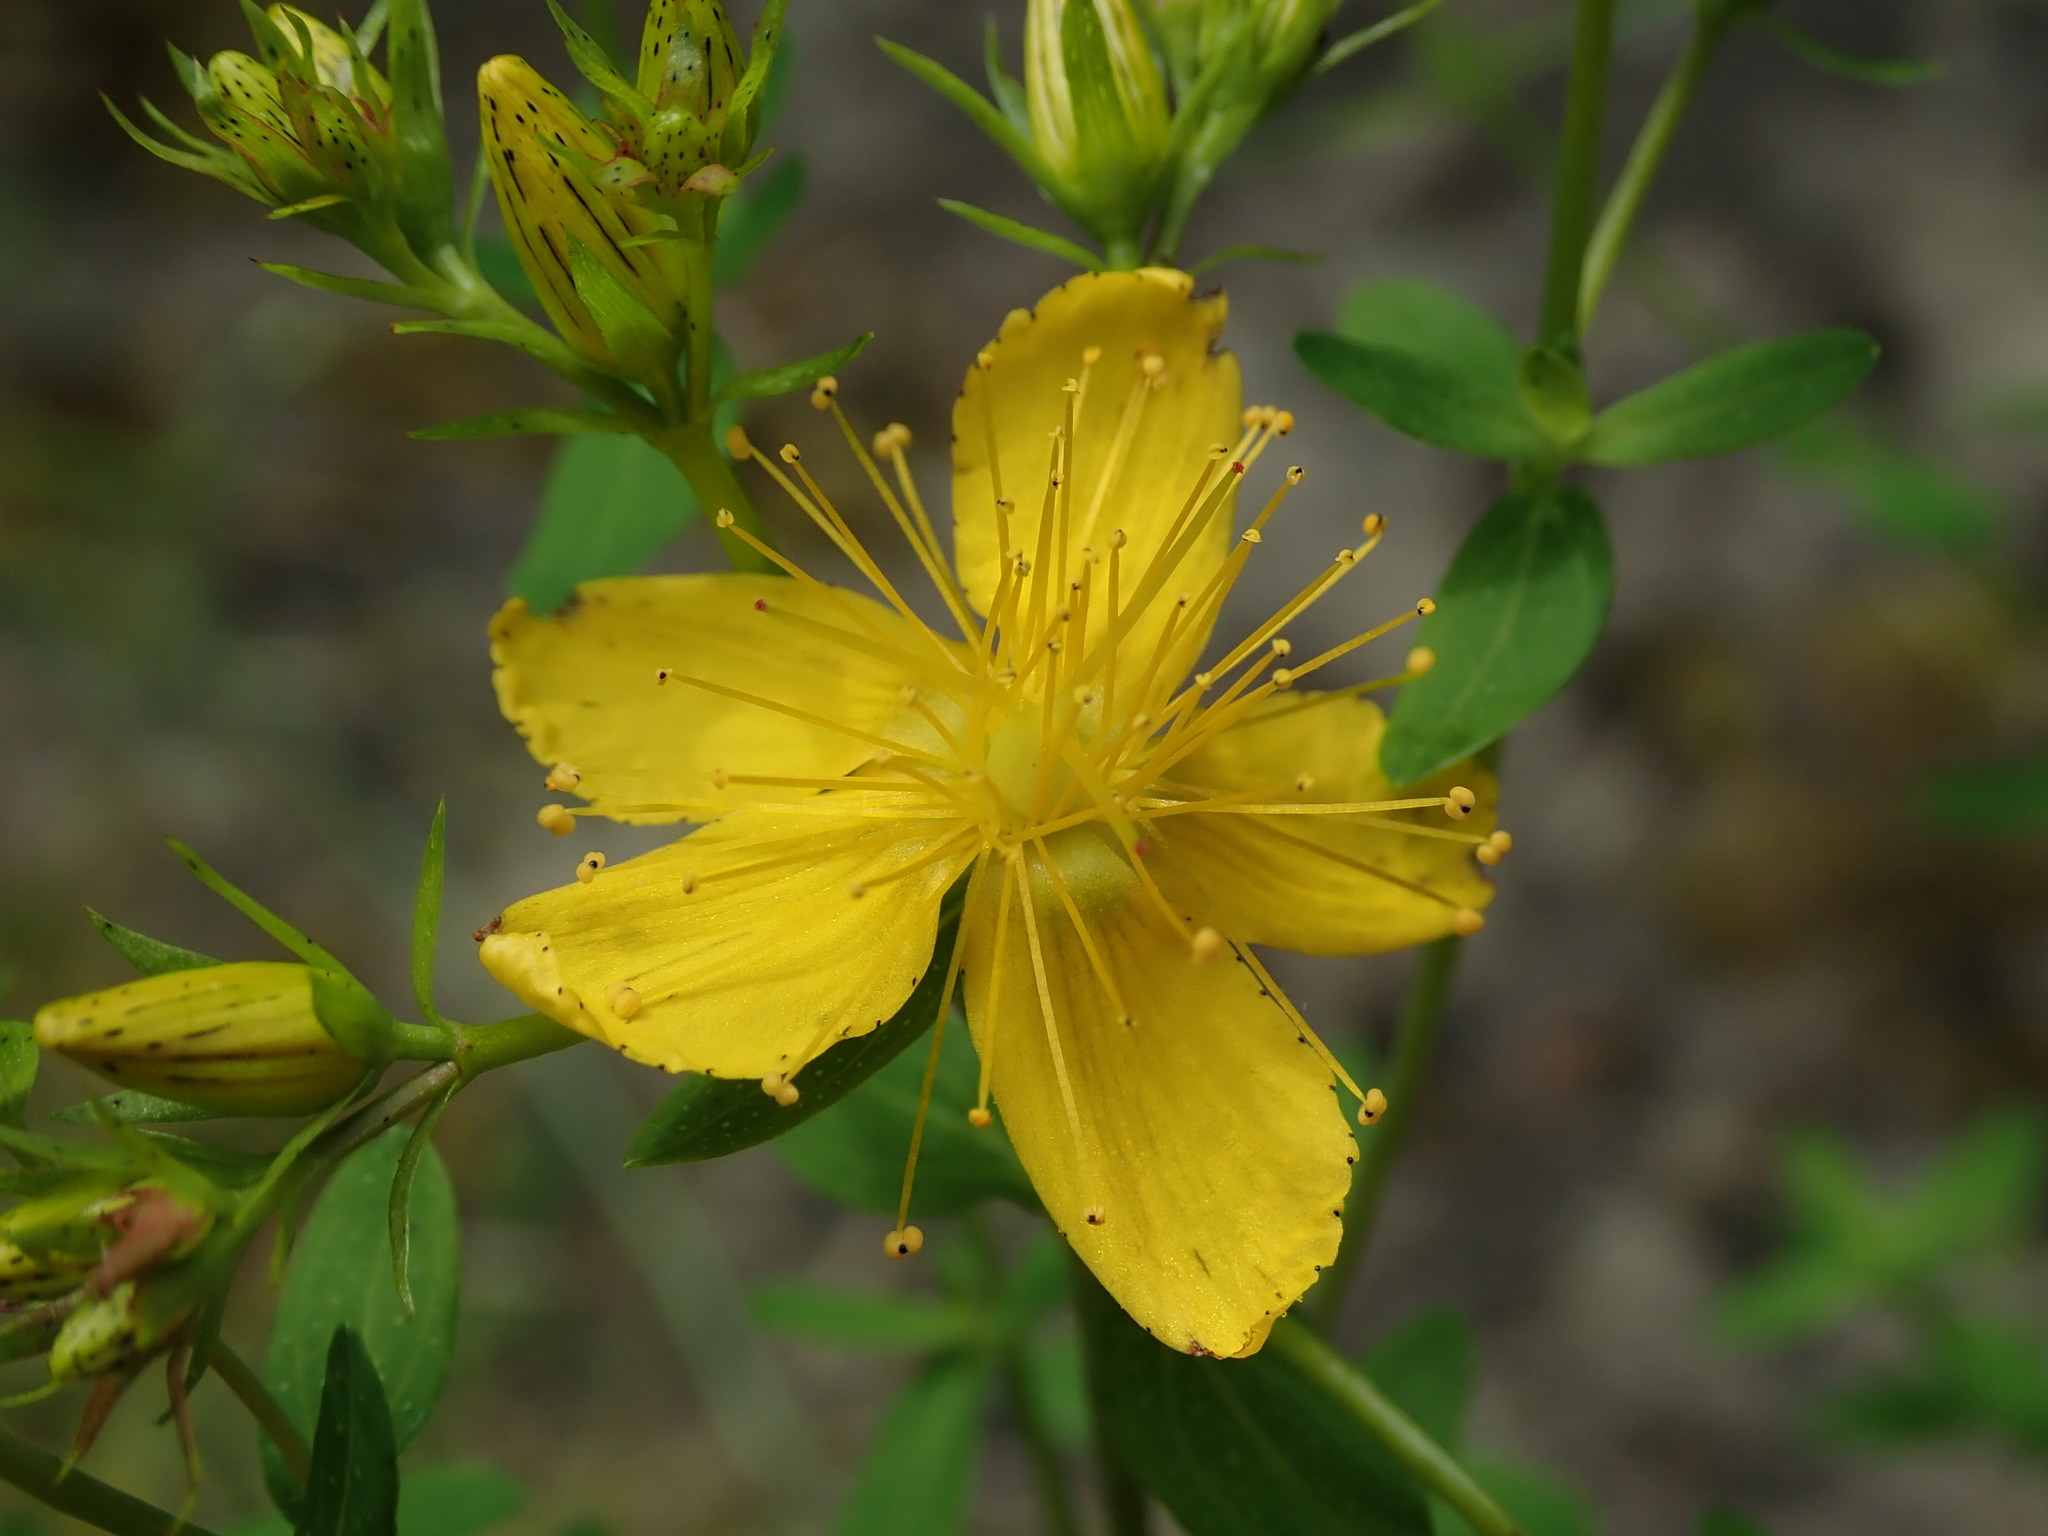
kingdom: Plantae
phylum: Tracheophyta
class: Magnoliopsida
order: Malpighiales
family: Hypericaceae
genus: Hypericum
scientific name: Hypericum perforatum
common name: Common st. johnswort
